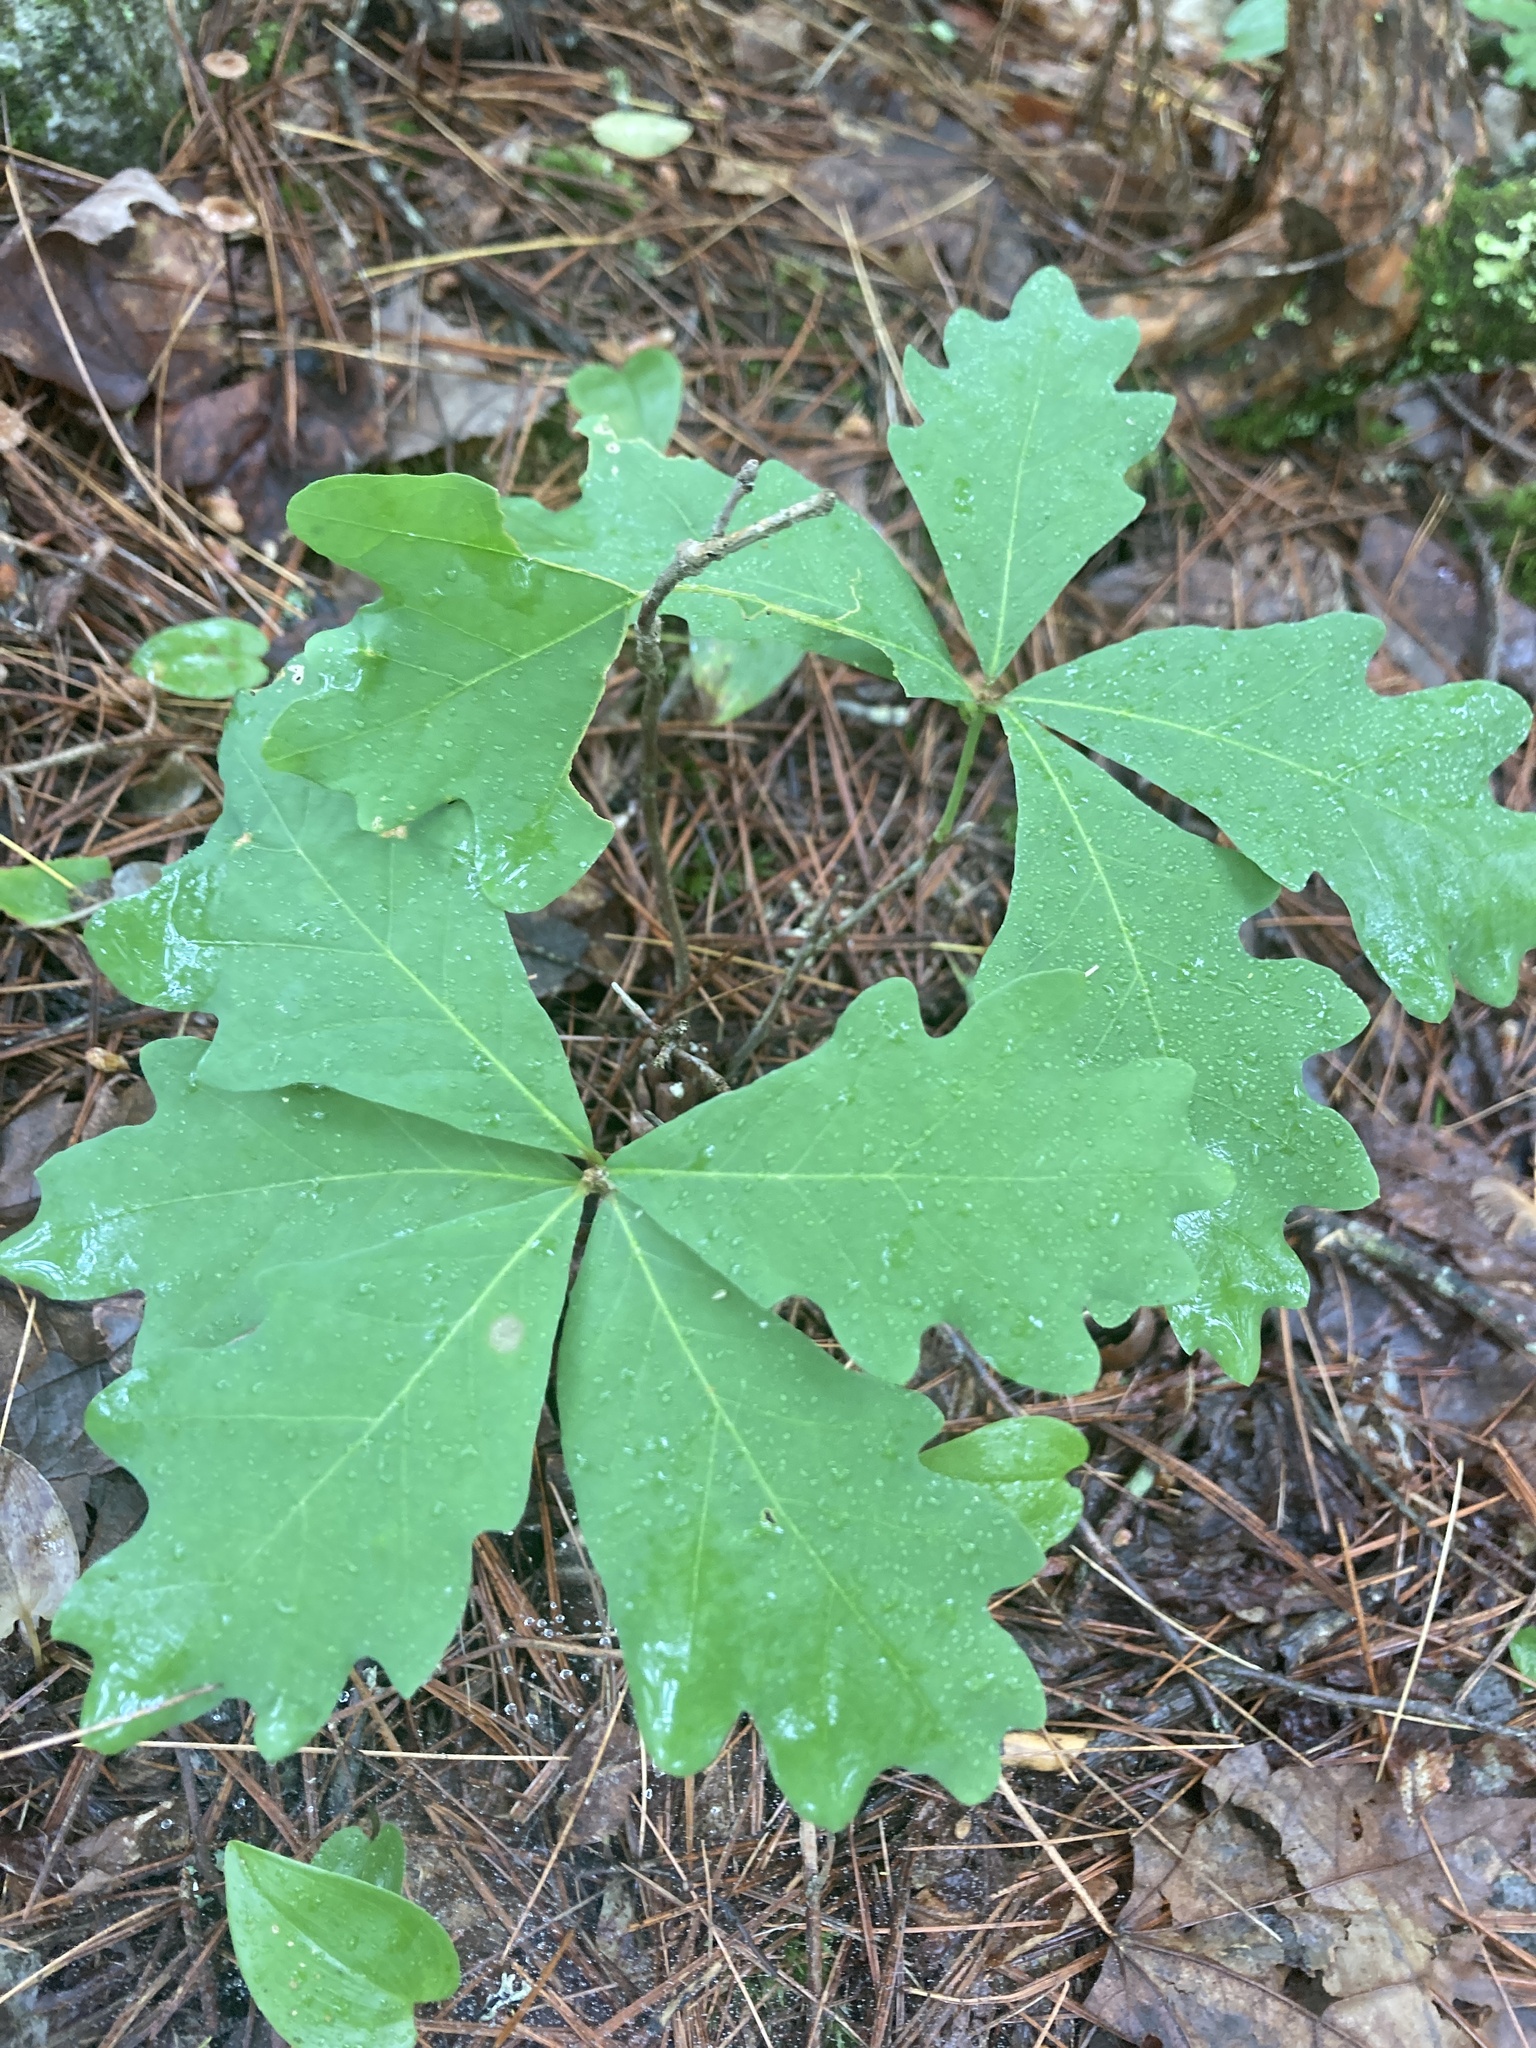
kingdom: Plantae
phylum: Tracheophyta
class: Magnoliopsida
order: Fagales
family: Fagaceae
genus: Quercus
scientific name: Quercus alba
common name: White oak
